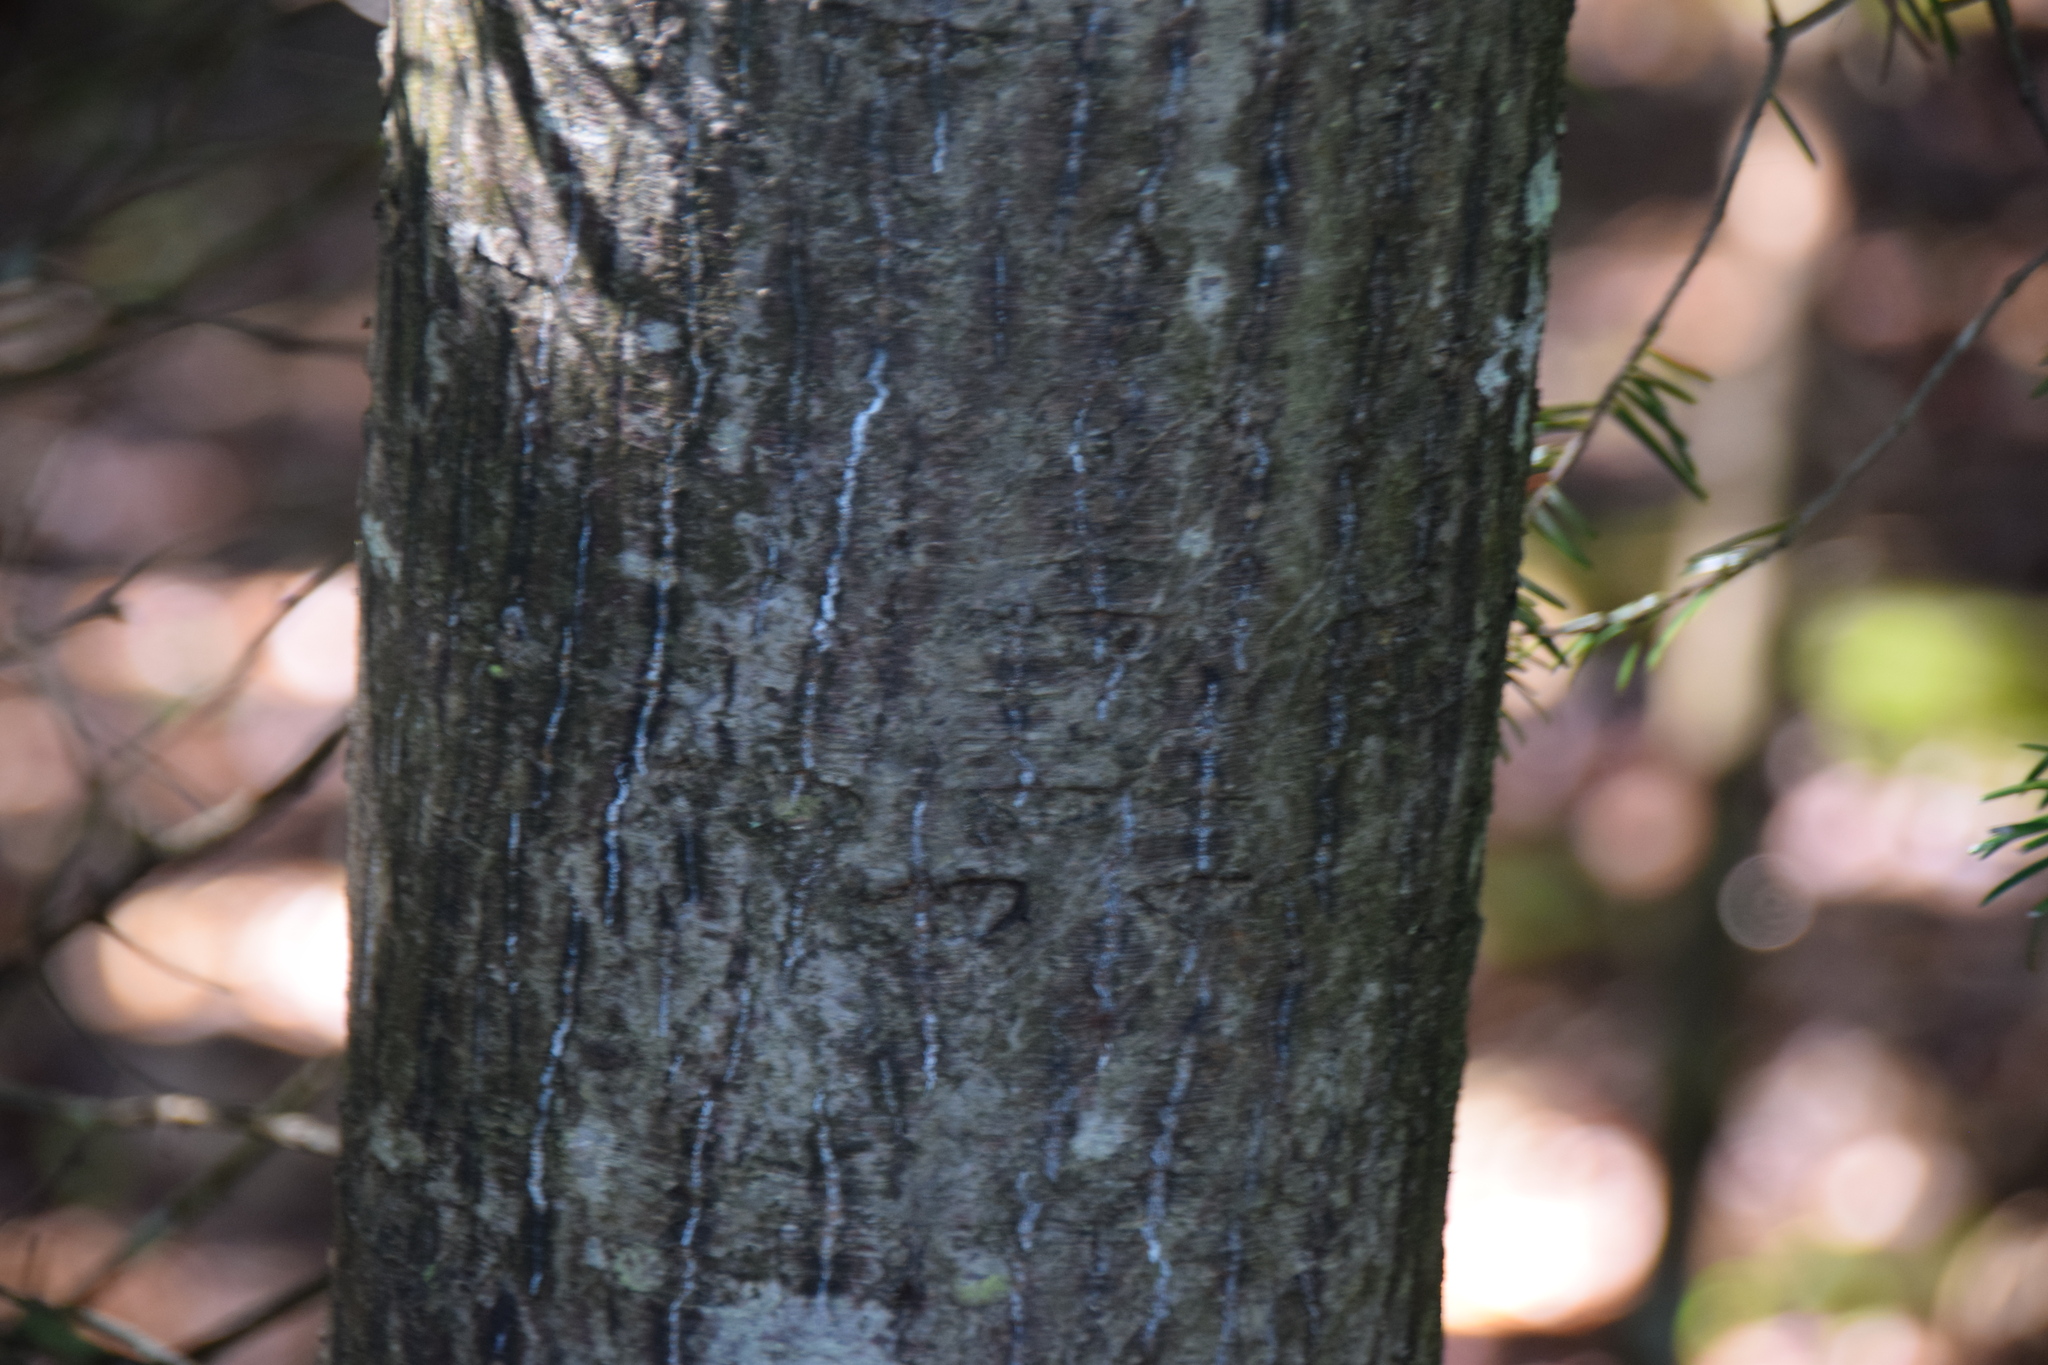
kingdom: Plantae
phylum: Tracheophyta
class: Magnoliopsida
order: Sapindales
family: Sapindaceae
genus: Acer
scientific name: Acer pensylvanicum
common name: Moosewood
